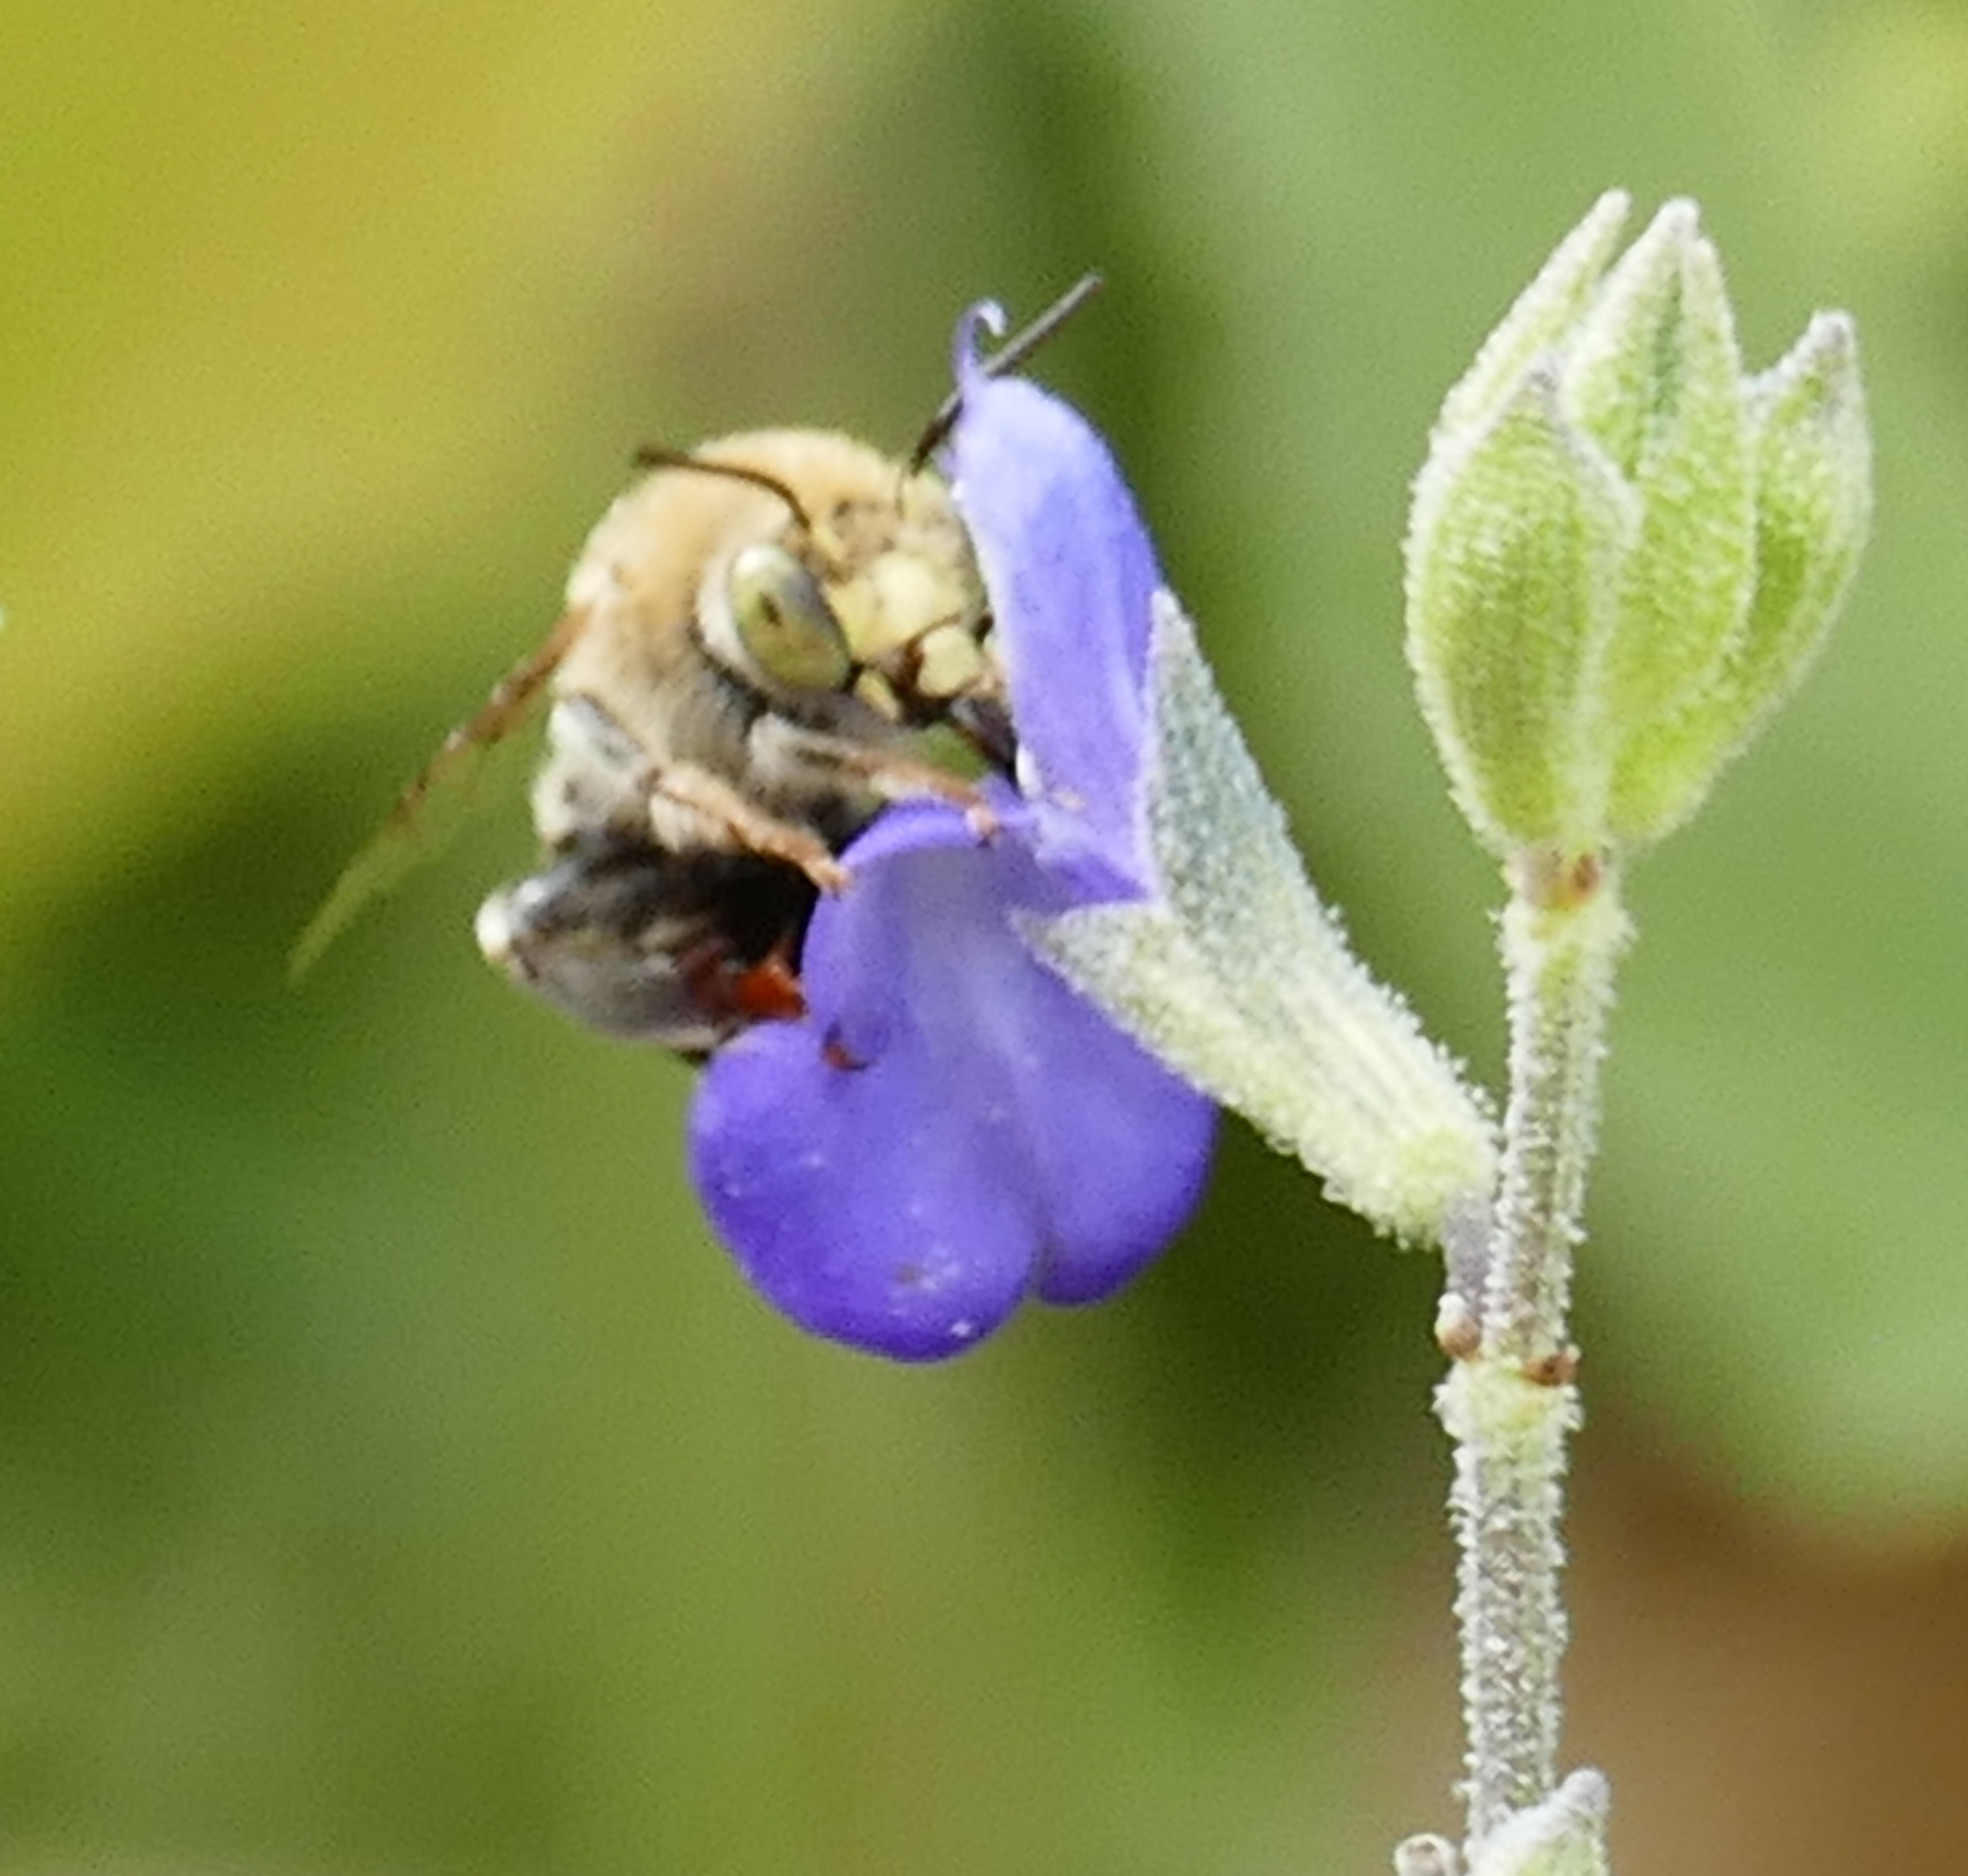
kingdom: Animalia
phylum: Arthropoda
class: Insecta
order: Hymenoptera
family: Apidae
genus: Anthophora
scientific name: Anthophora californica
